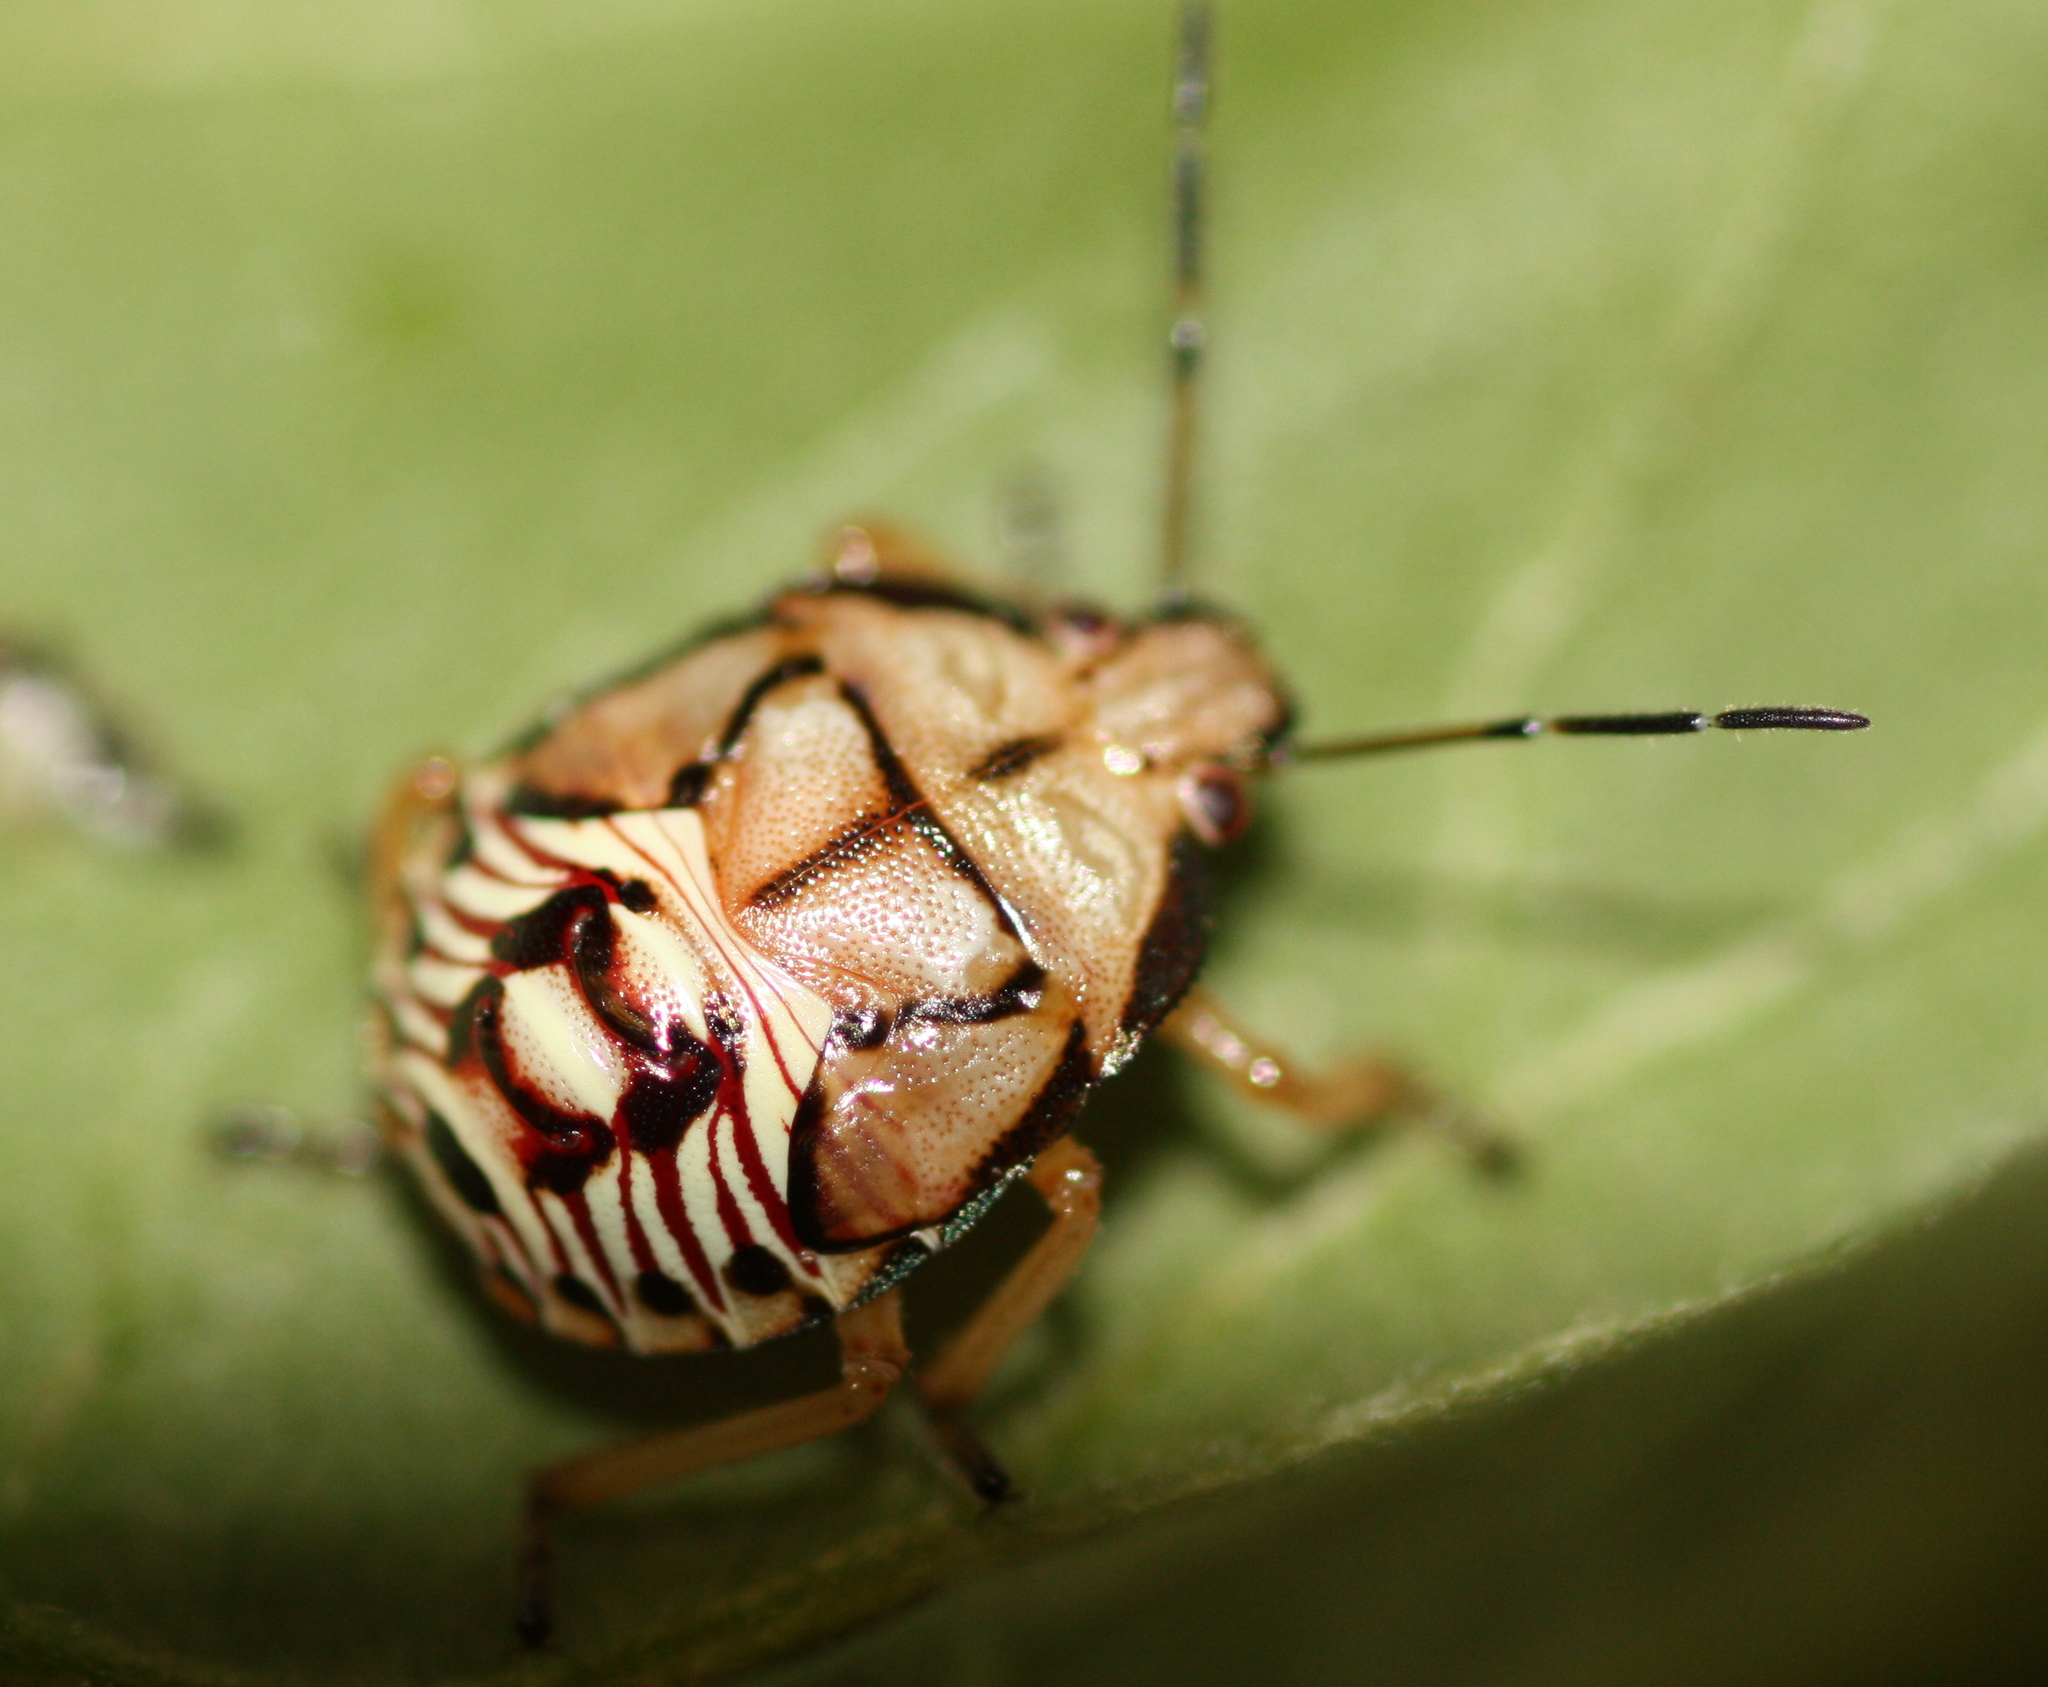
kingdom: Animalia
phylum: Arthropoda
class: Insecta
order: Hemiptera
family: Pentatomidae
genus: Podisus
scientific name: Podisus serieventris
